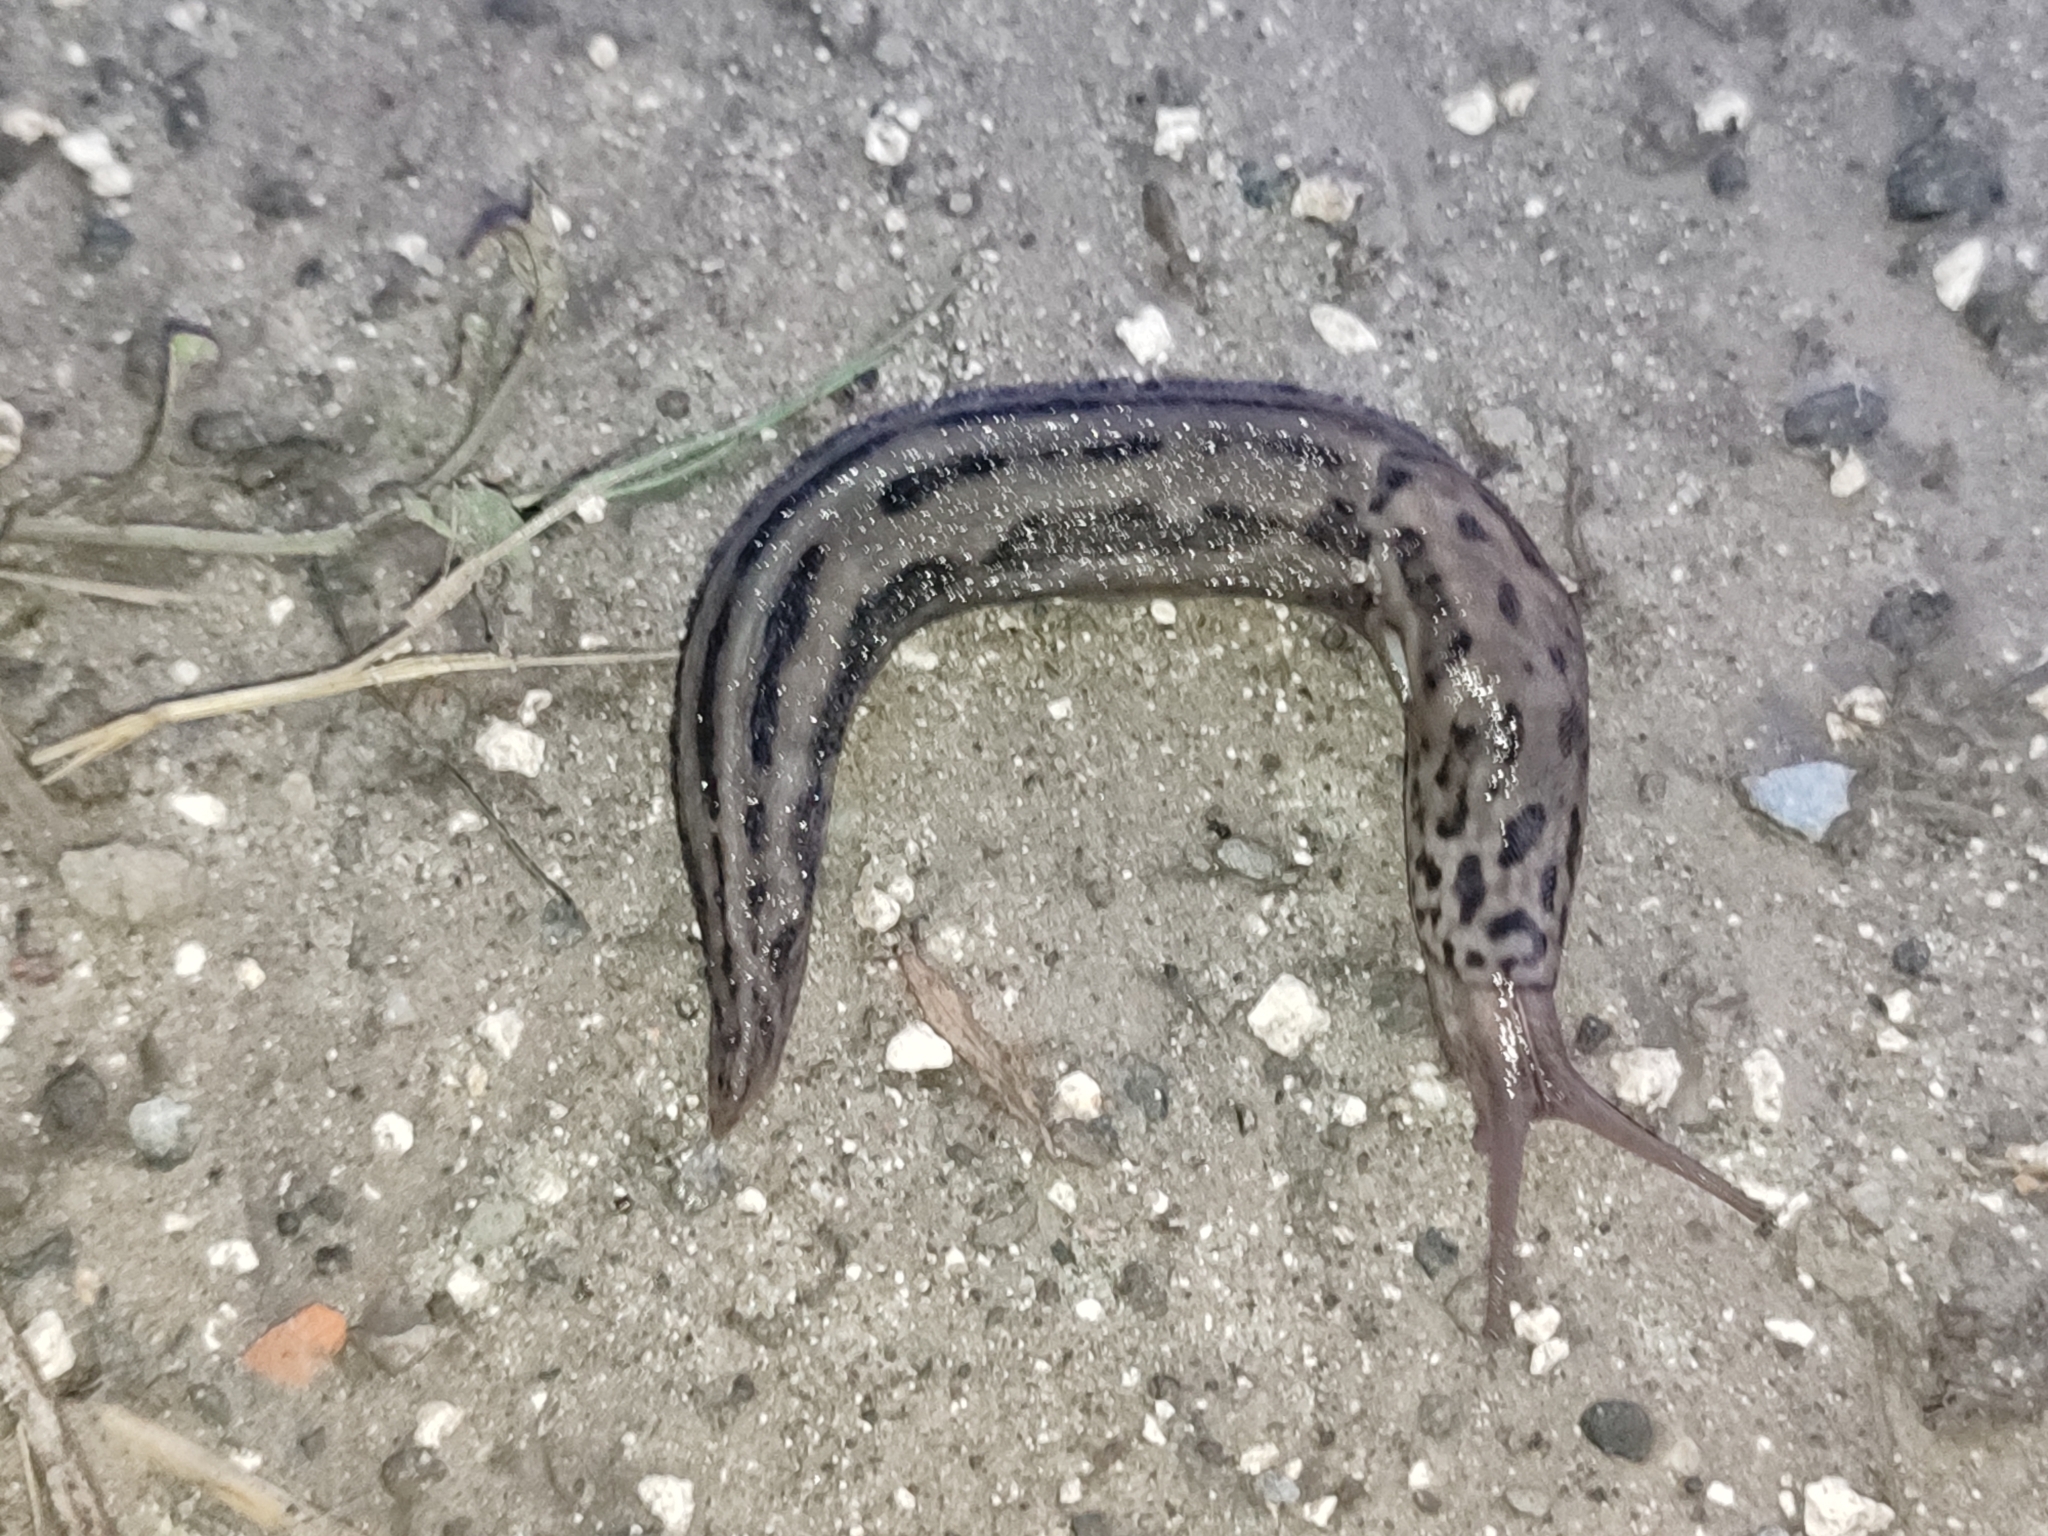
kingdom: Animalia
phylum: Mollusca
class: Gastropoda
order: Stylommatophora
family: Limacidae
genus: Limax
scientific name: Limax maximus
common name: Great grey slug
